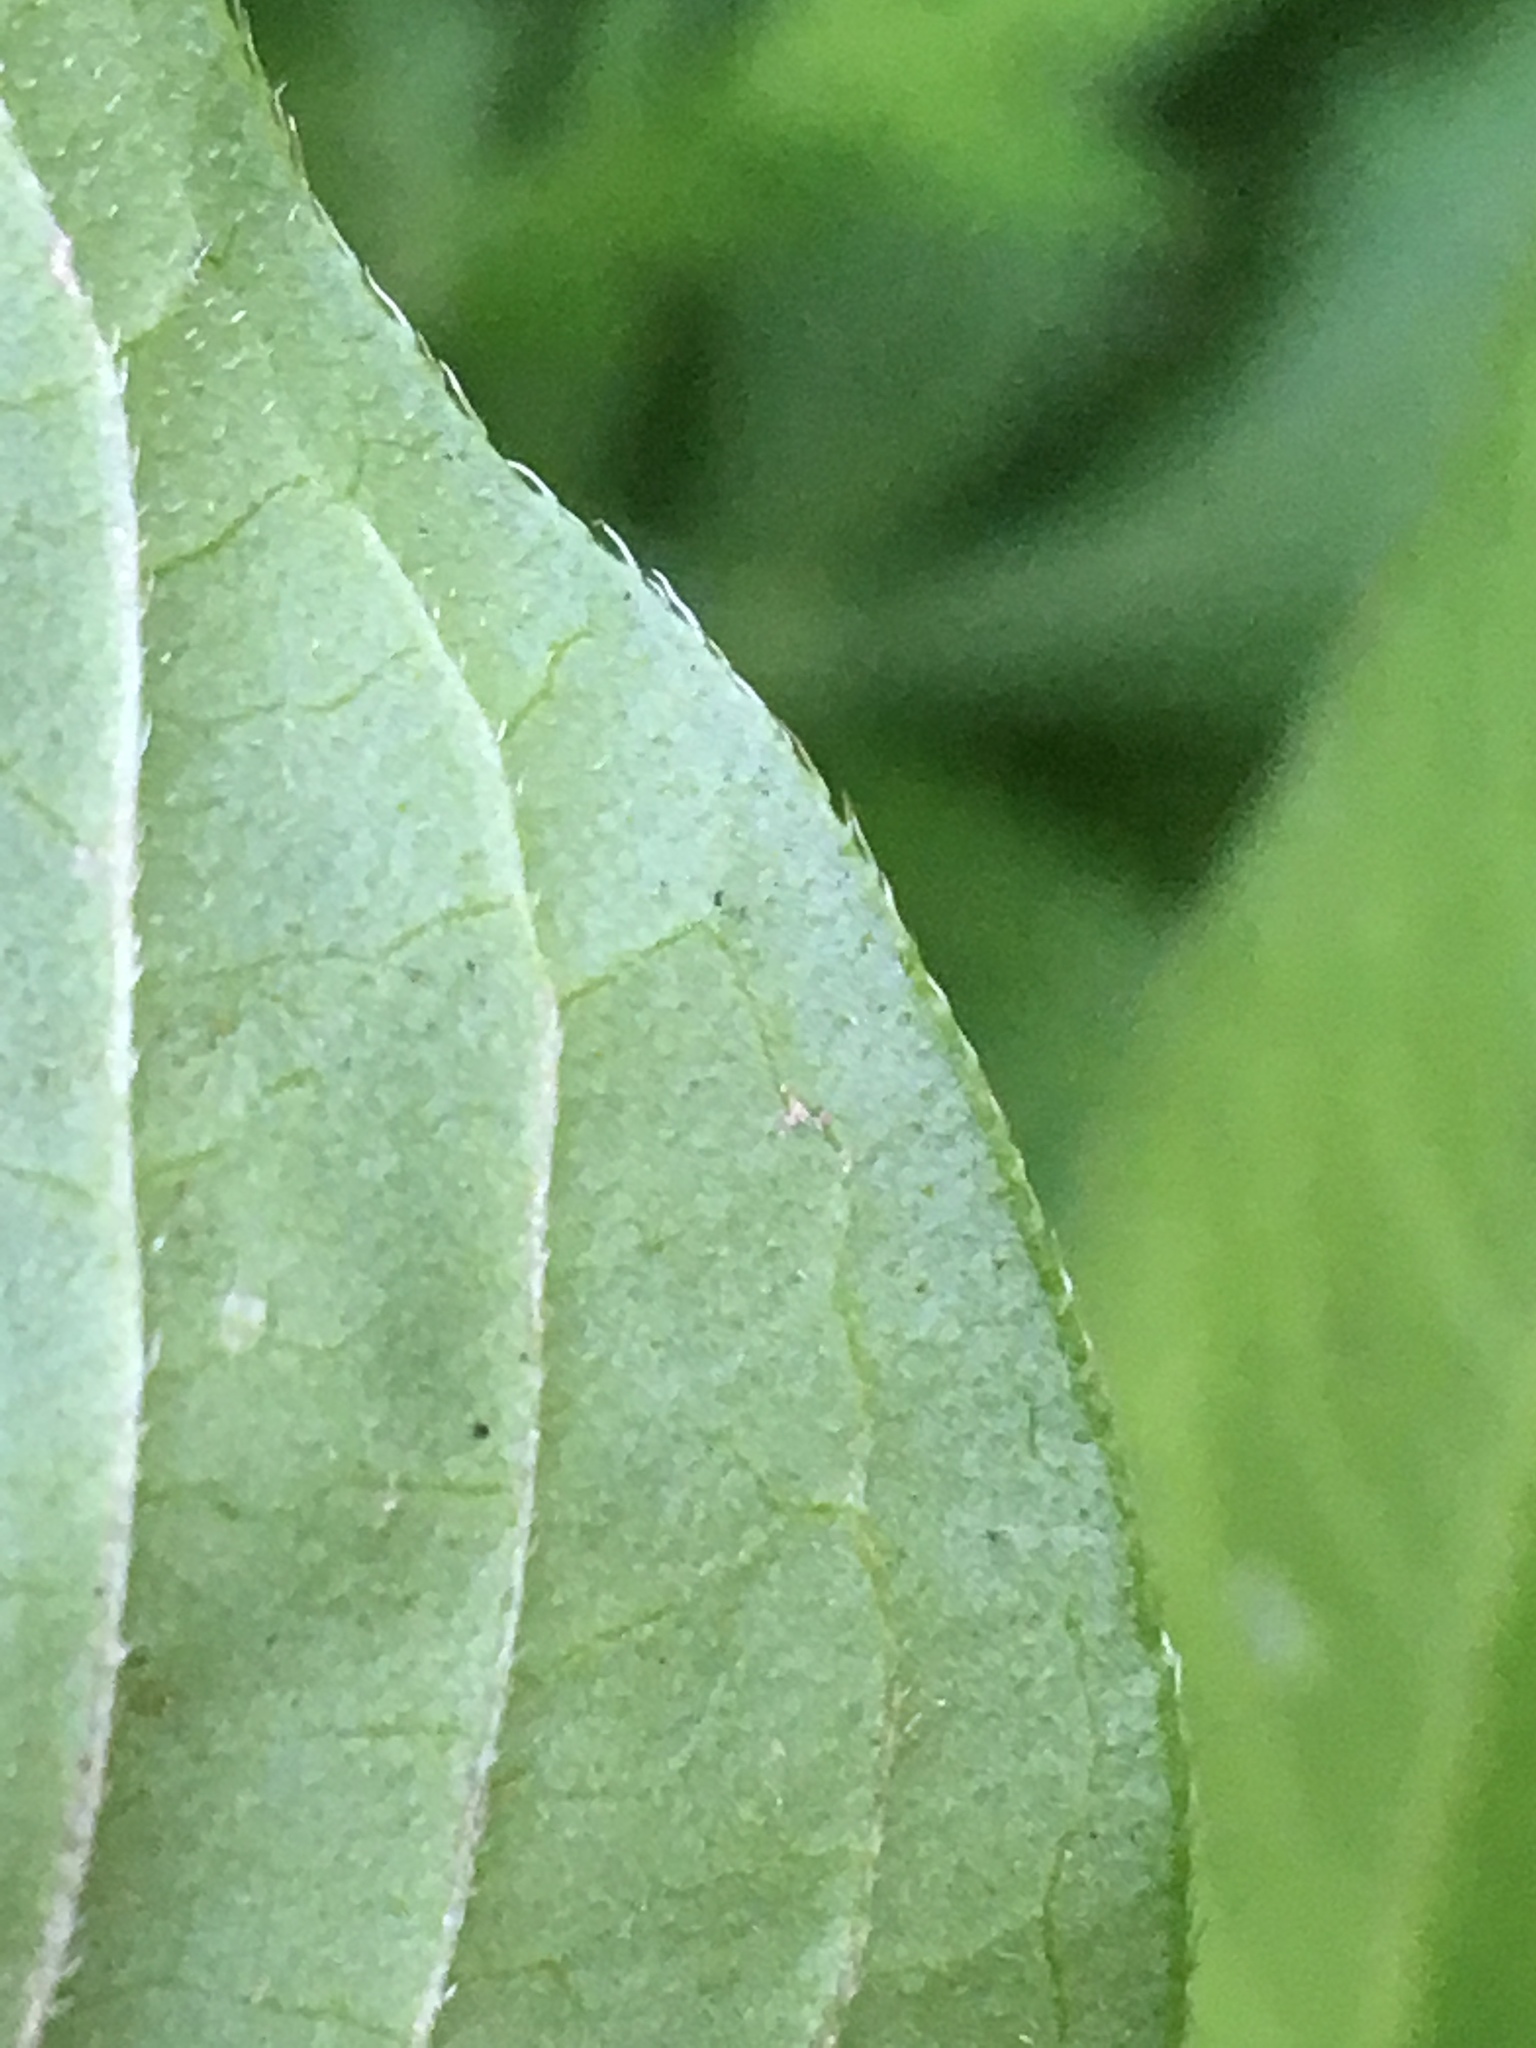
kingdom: Plantae
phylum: Tracheophyta
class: Magnoliopsida
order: Caryophyllales
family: Polygonaceae
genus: Persicaria
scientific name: Persicaria extremiorientalis
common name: Far-eastern smartweed
